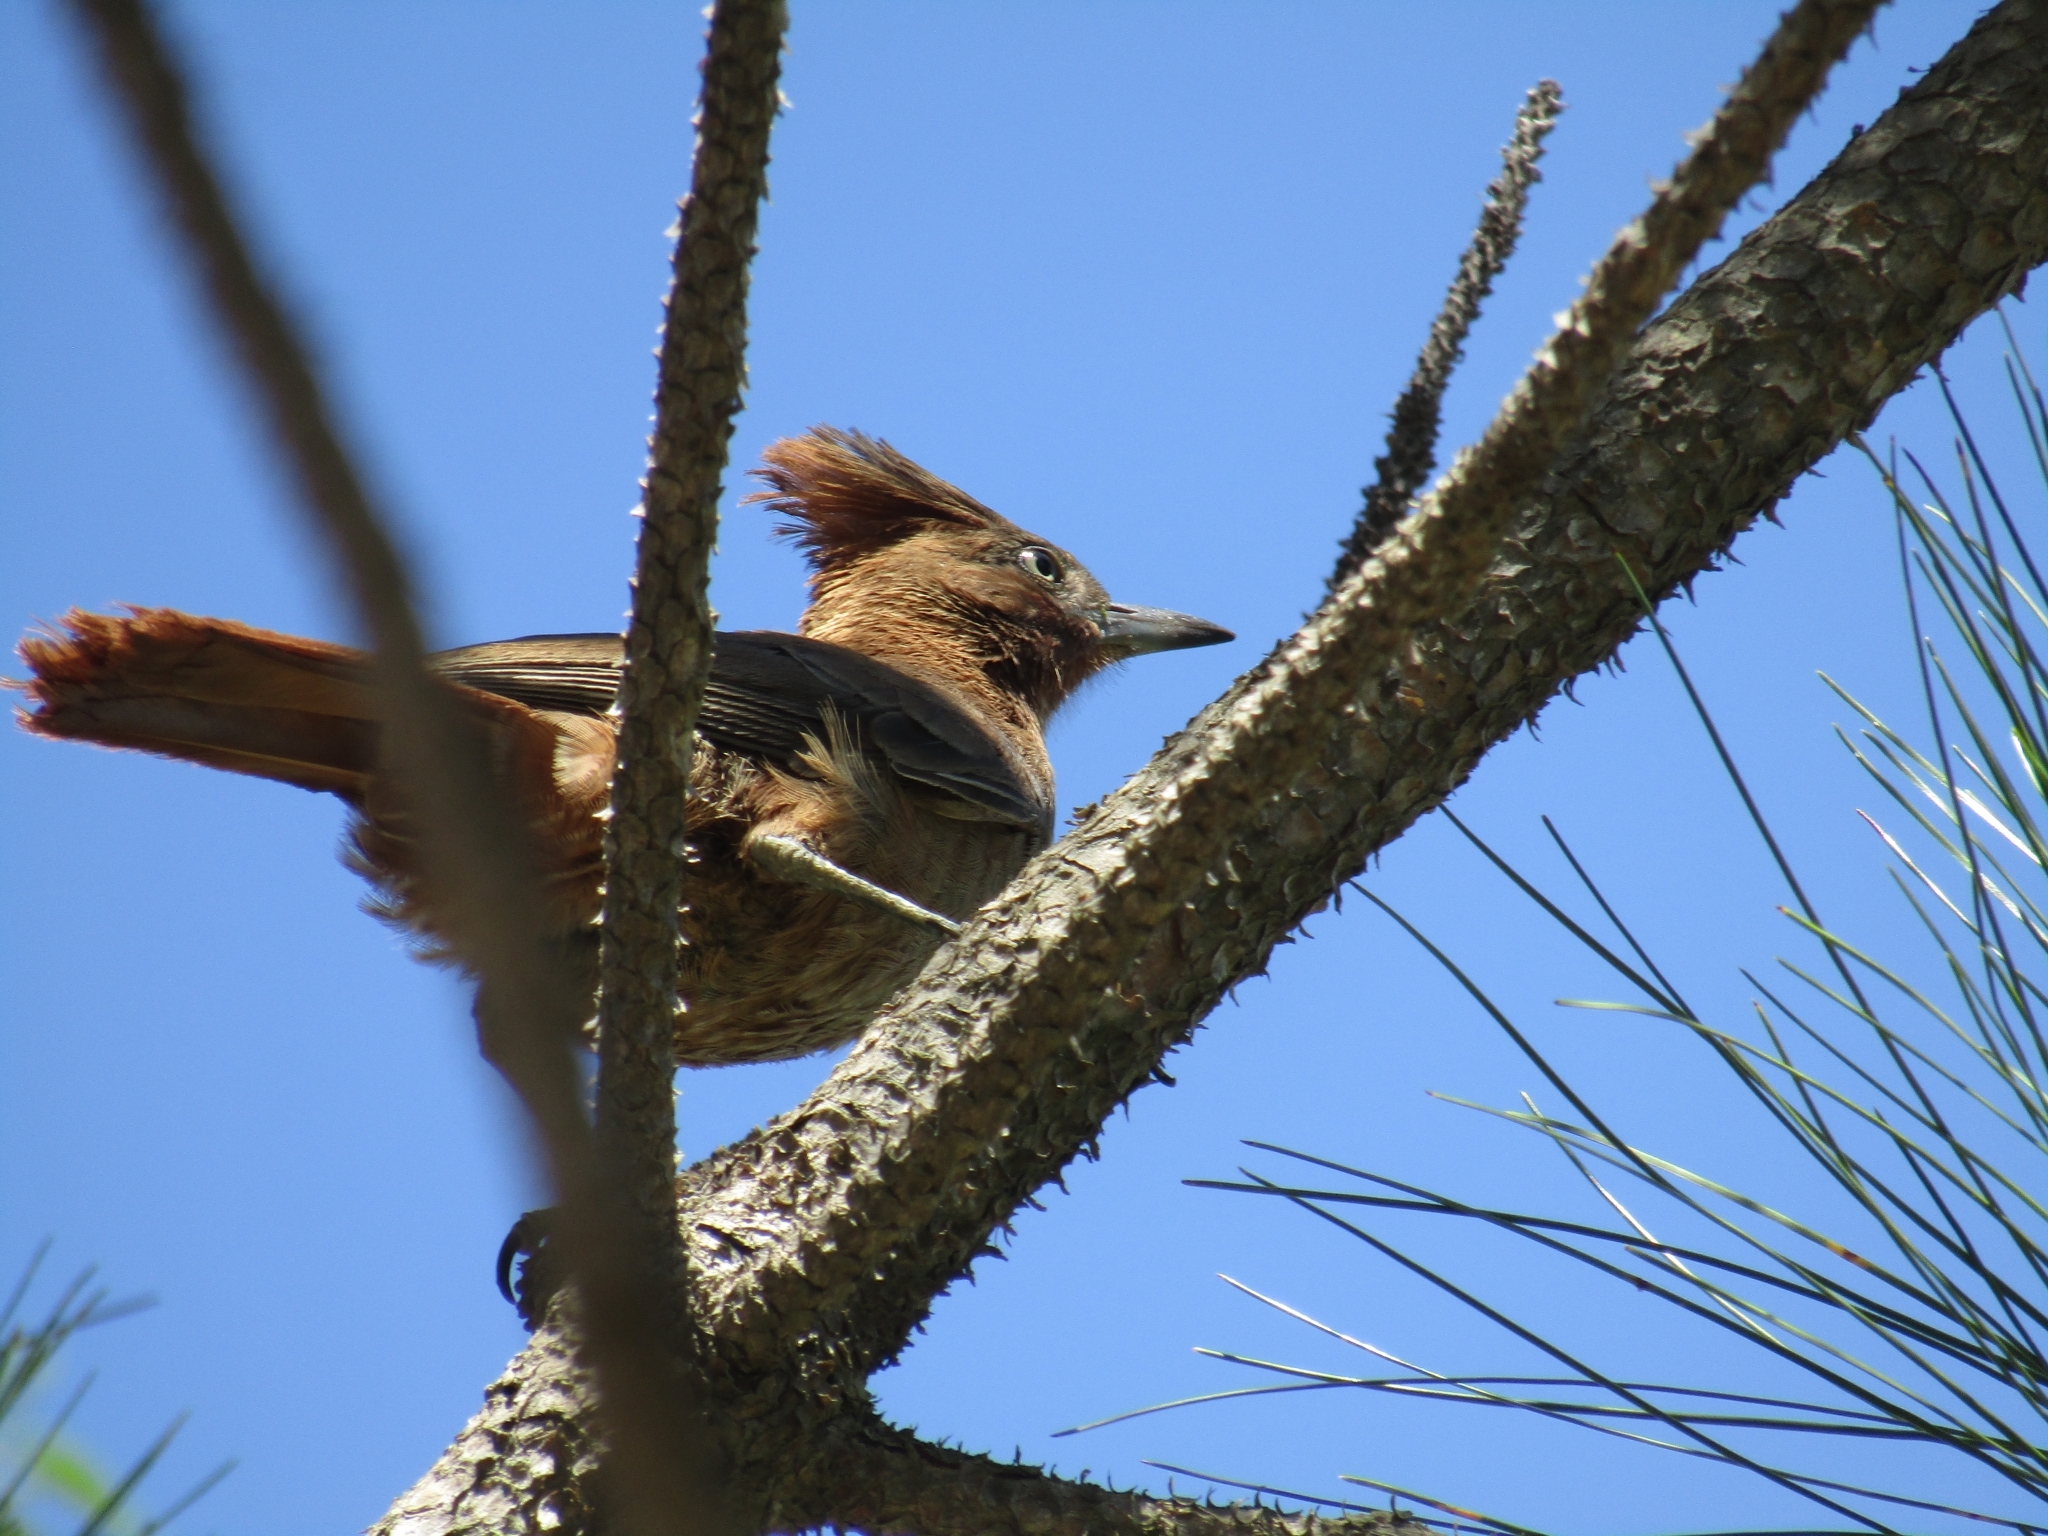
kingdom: Animalia
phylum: Chordata
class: Aves
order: Passeriformes
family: Furnariidae
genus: Pseudoseisura
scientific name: Pseudoseisura lophotes
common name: Brown cacholote
